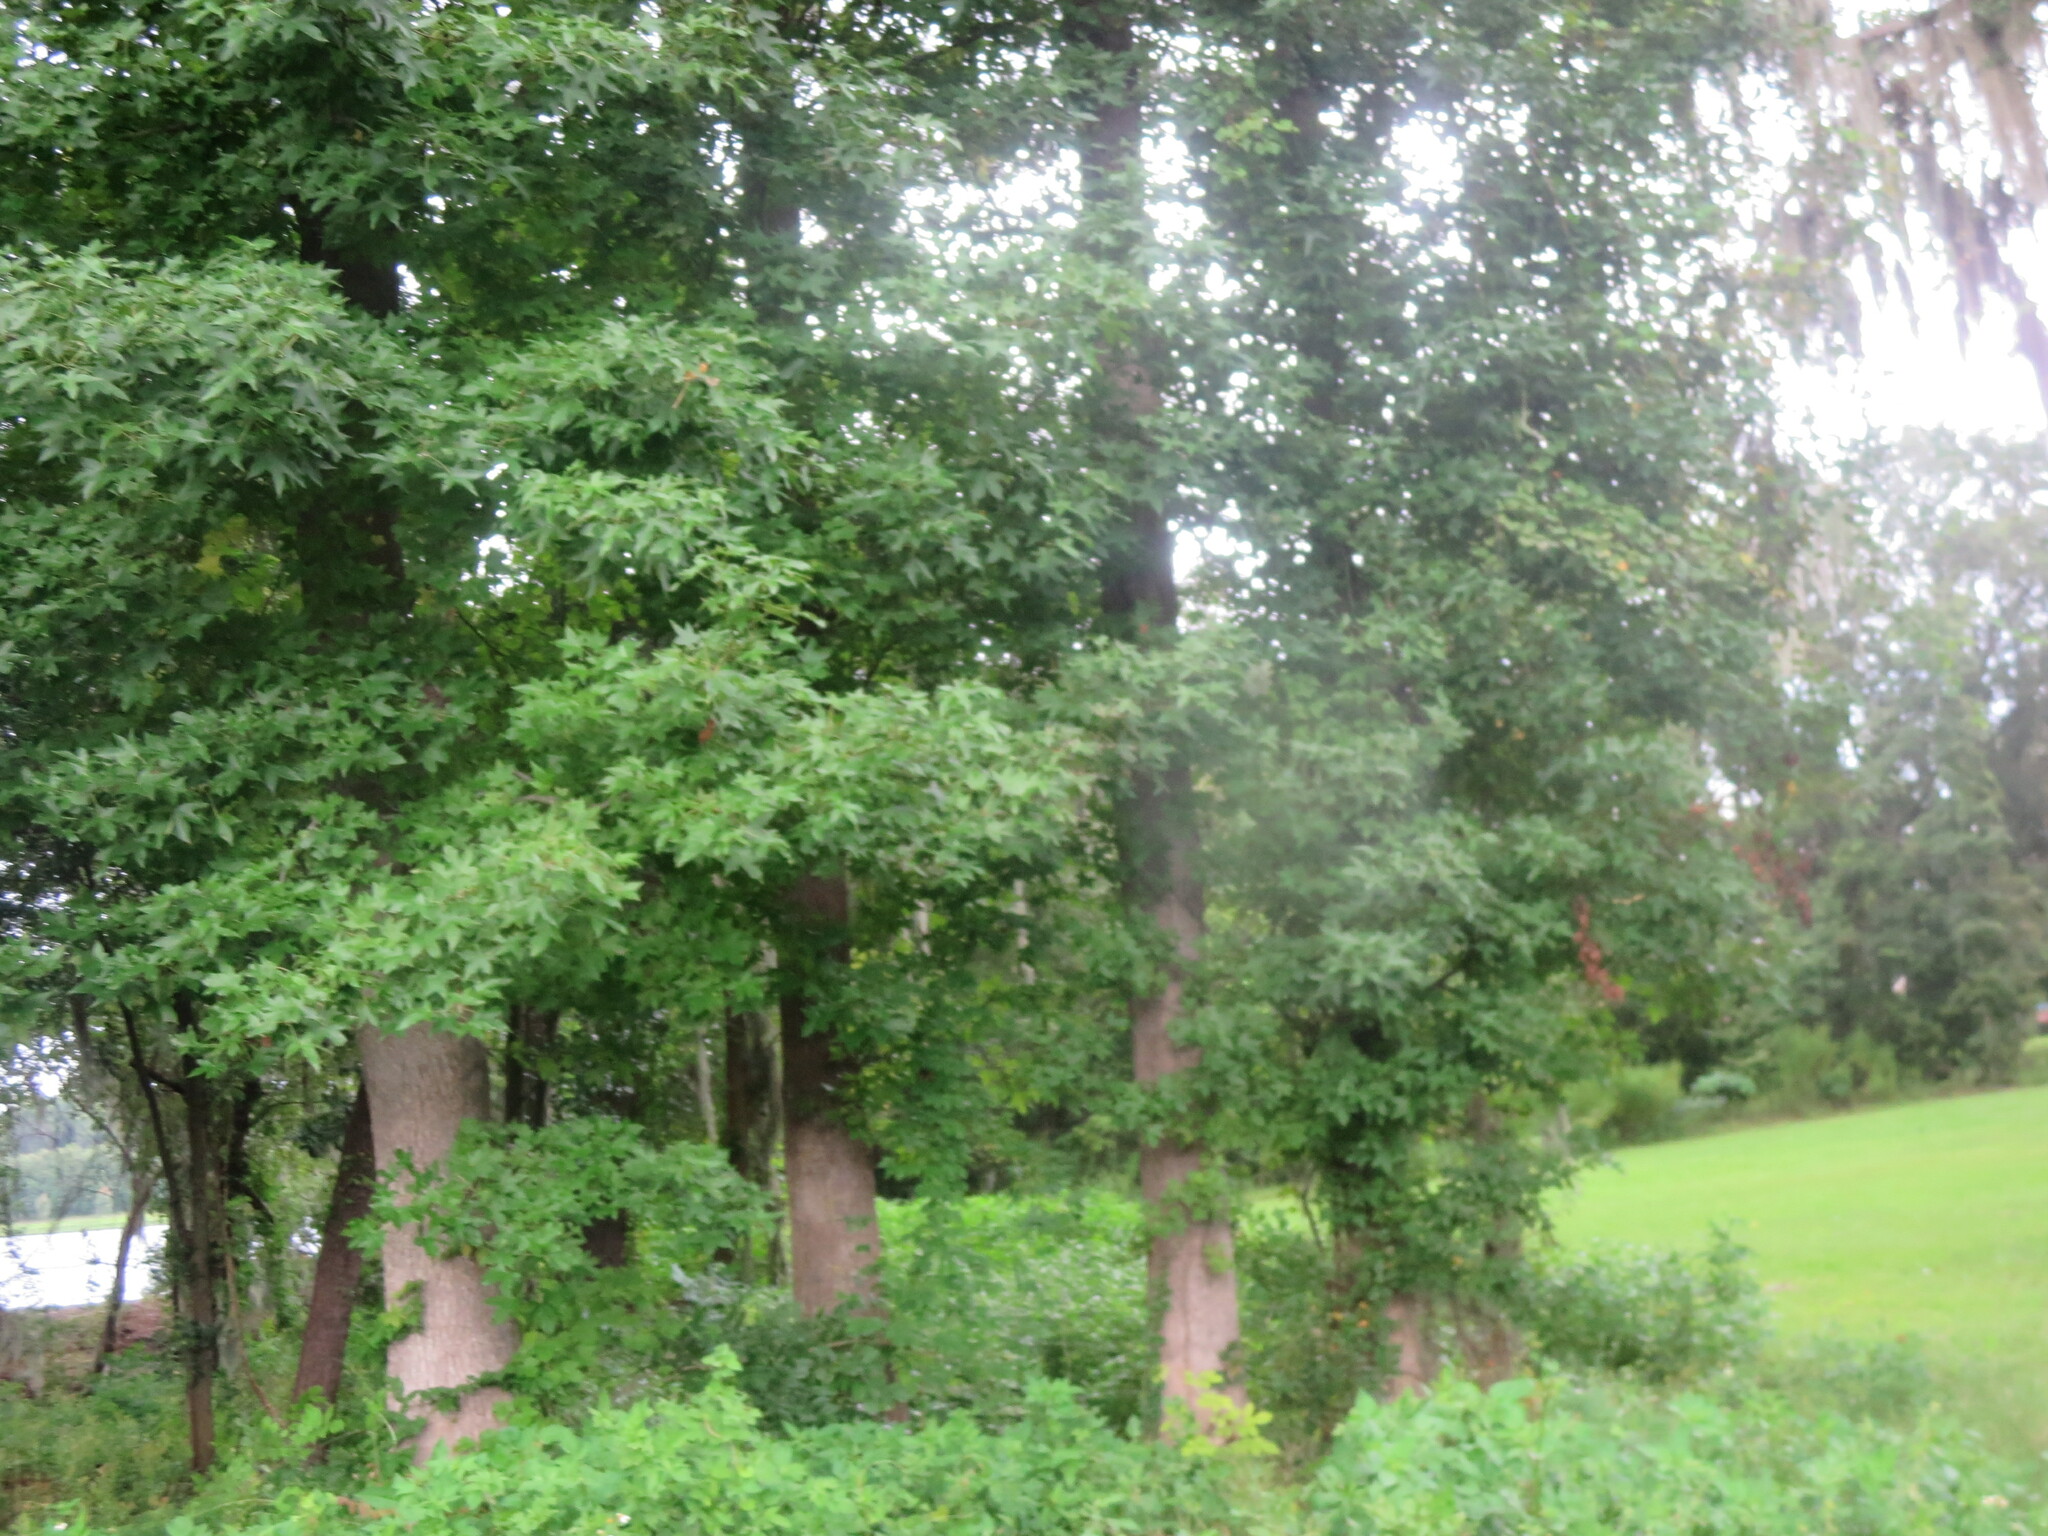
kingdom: Plantae
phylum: Tracheophyta
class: Magnoliopsida
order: Saxifragales
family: Altingiaceae
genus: Liquidambar
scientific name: Liquidambar styraciflua
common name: Sweet gum
